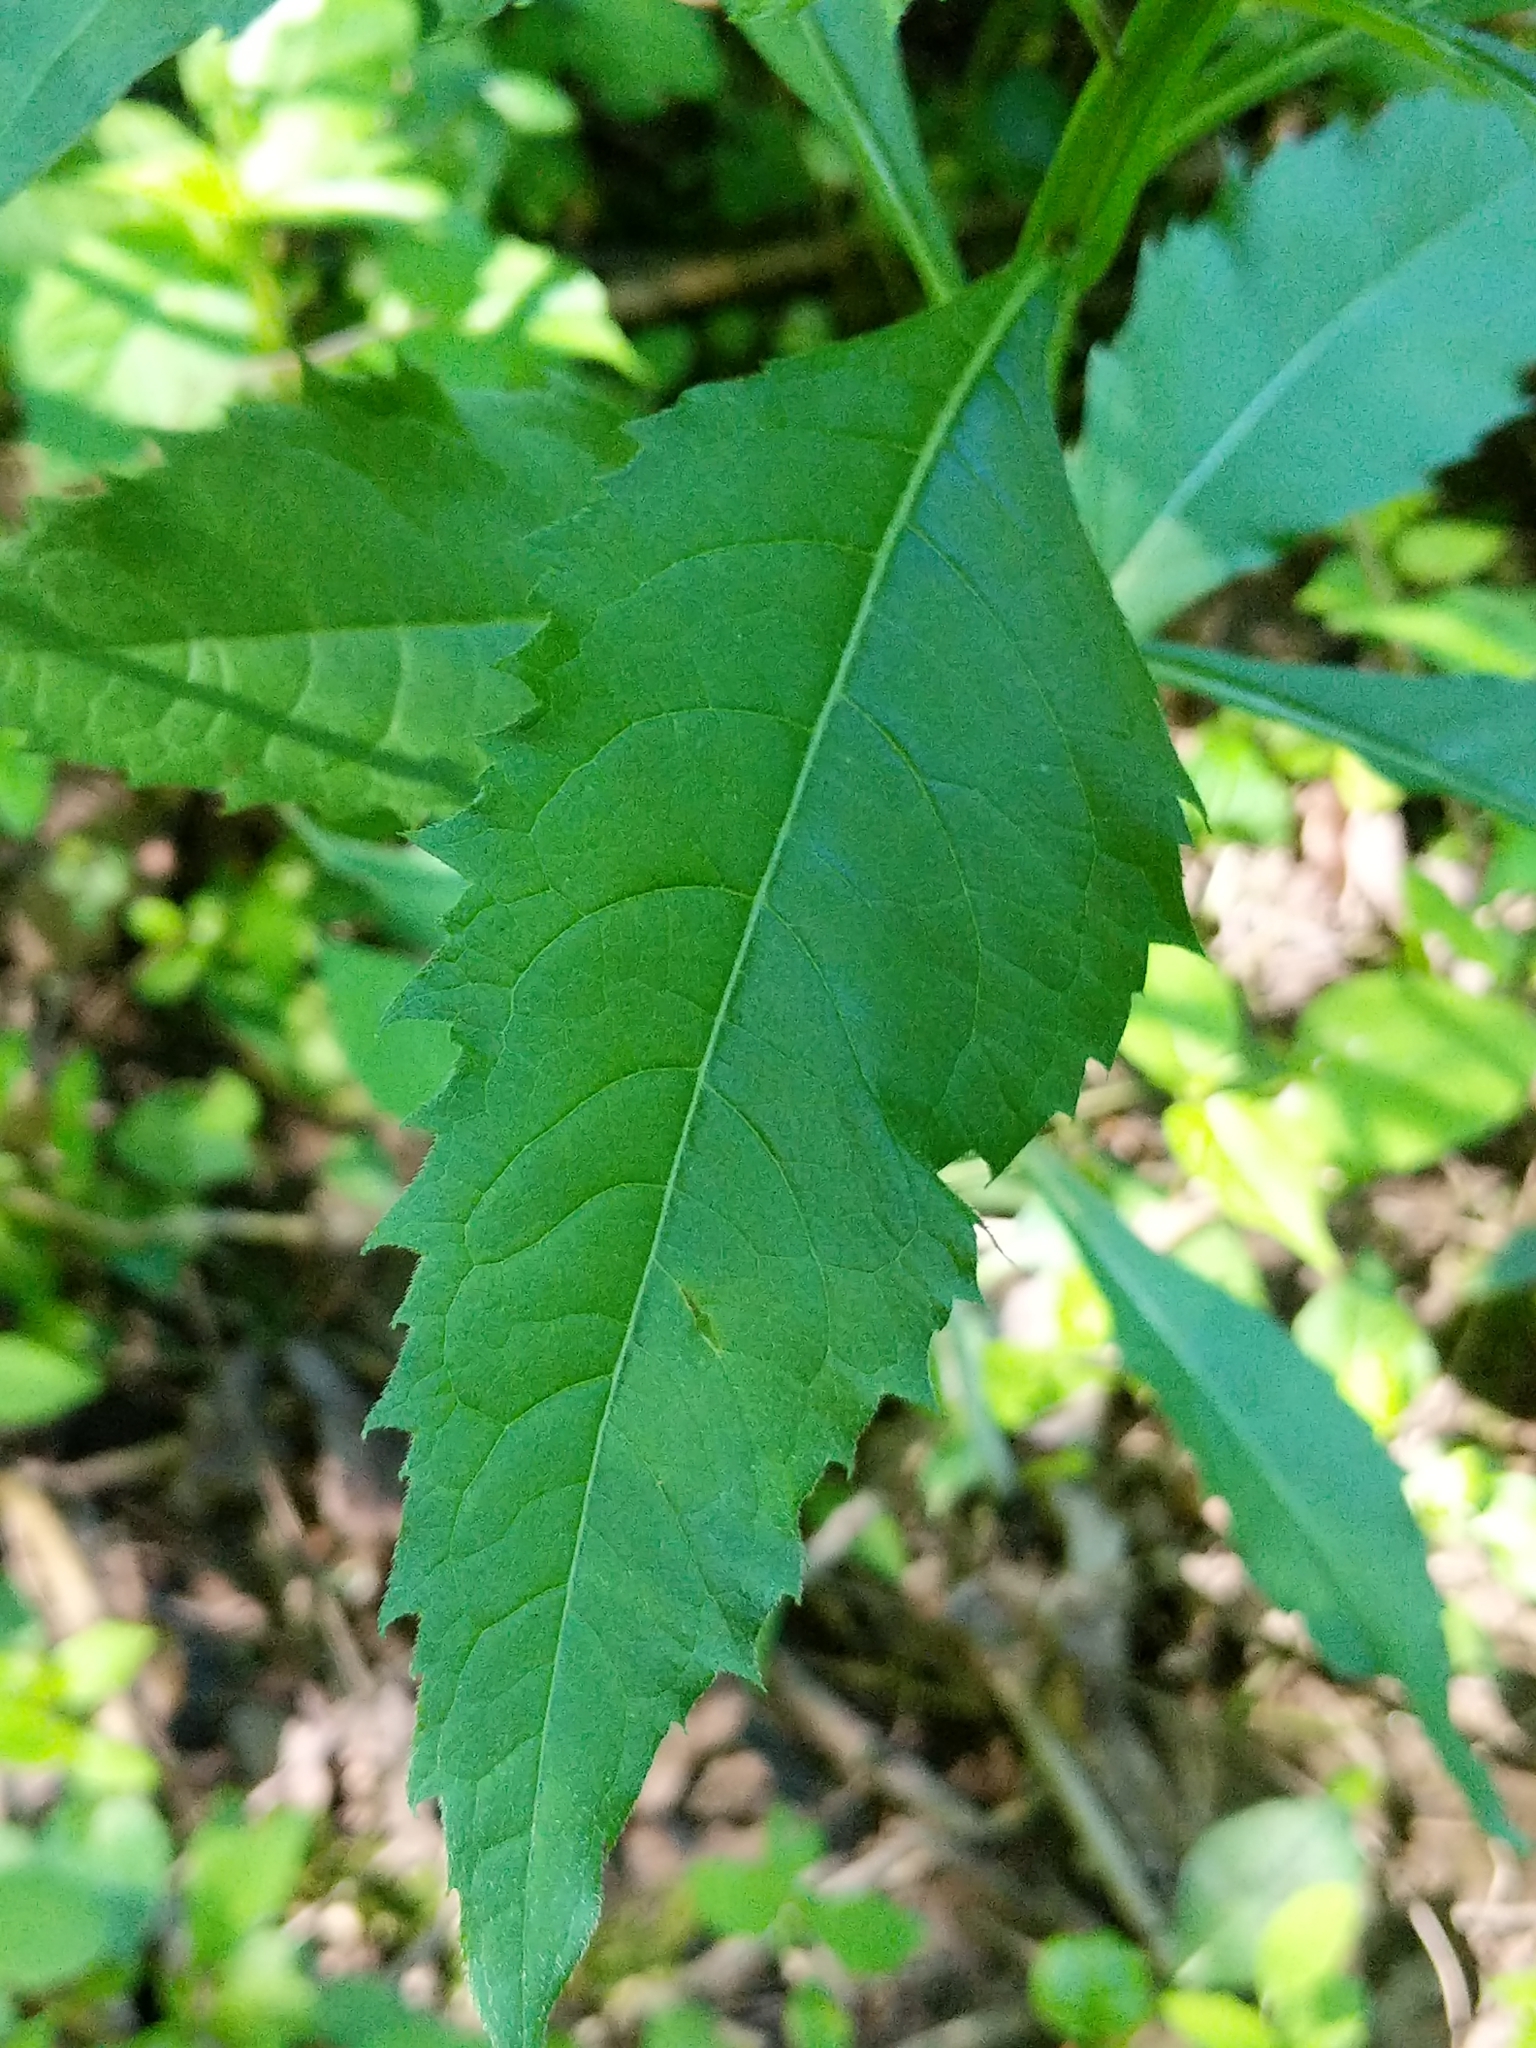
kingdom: Plantae
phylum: Tracheophyta
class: Magnoliopsida
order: Asterales
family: Asteraceae
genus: Verbesina
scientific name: Verbesina alternifolia
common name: Wingstem
